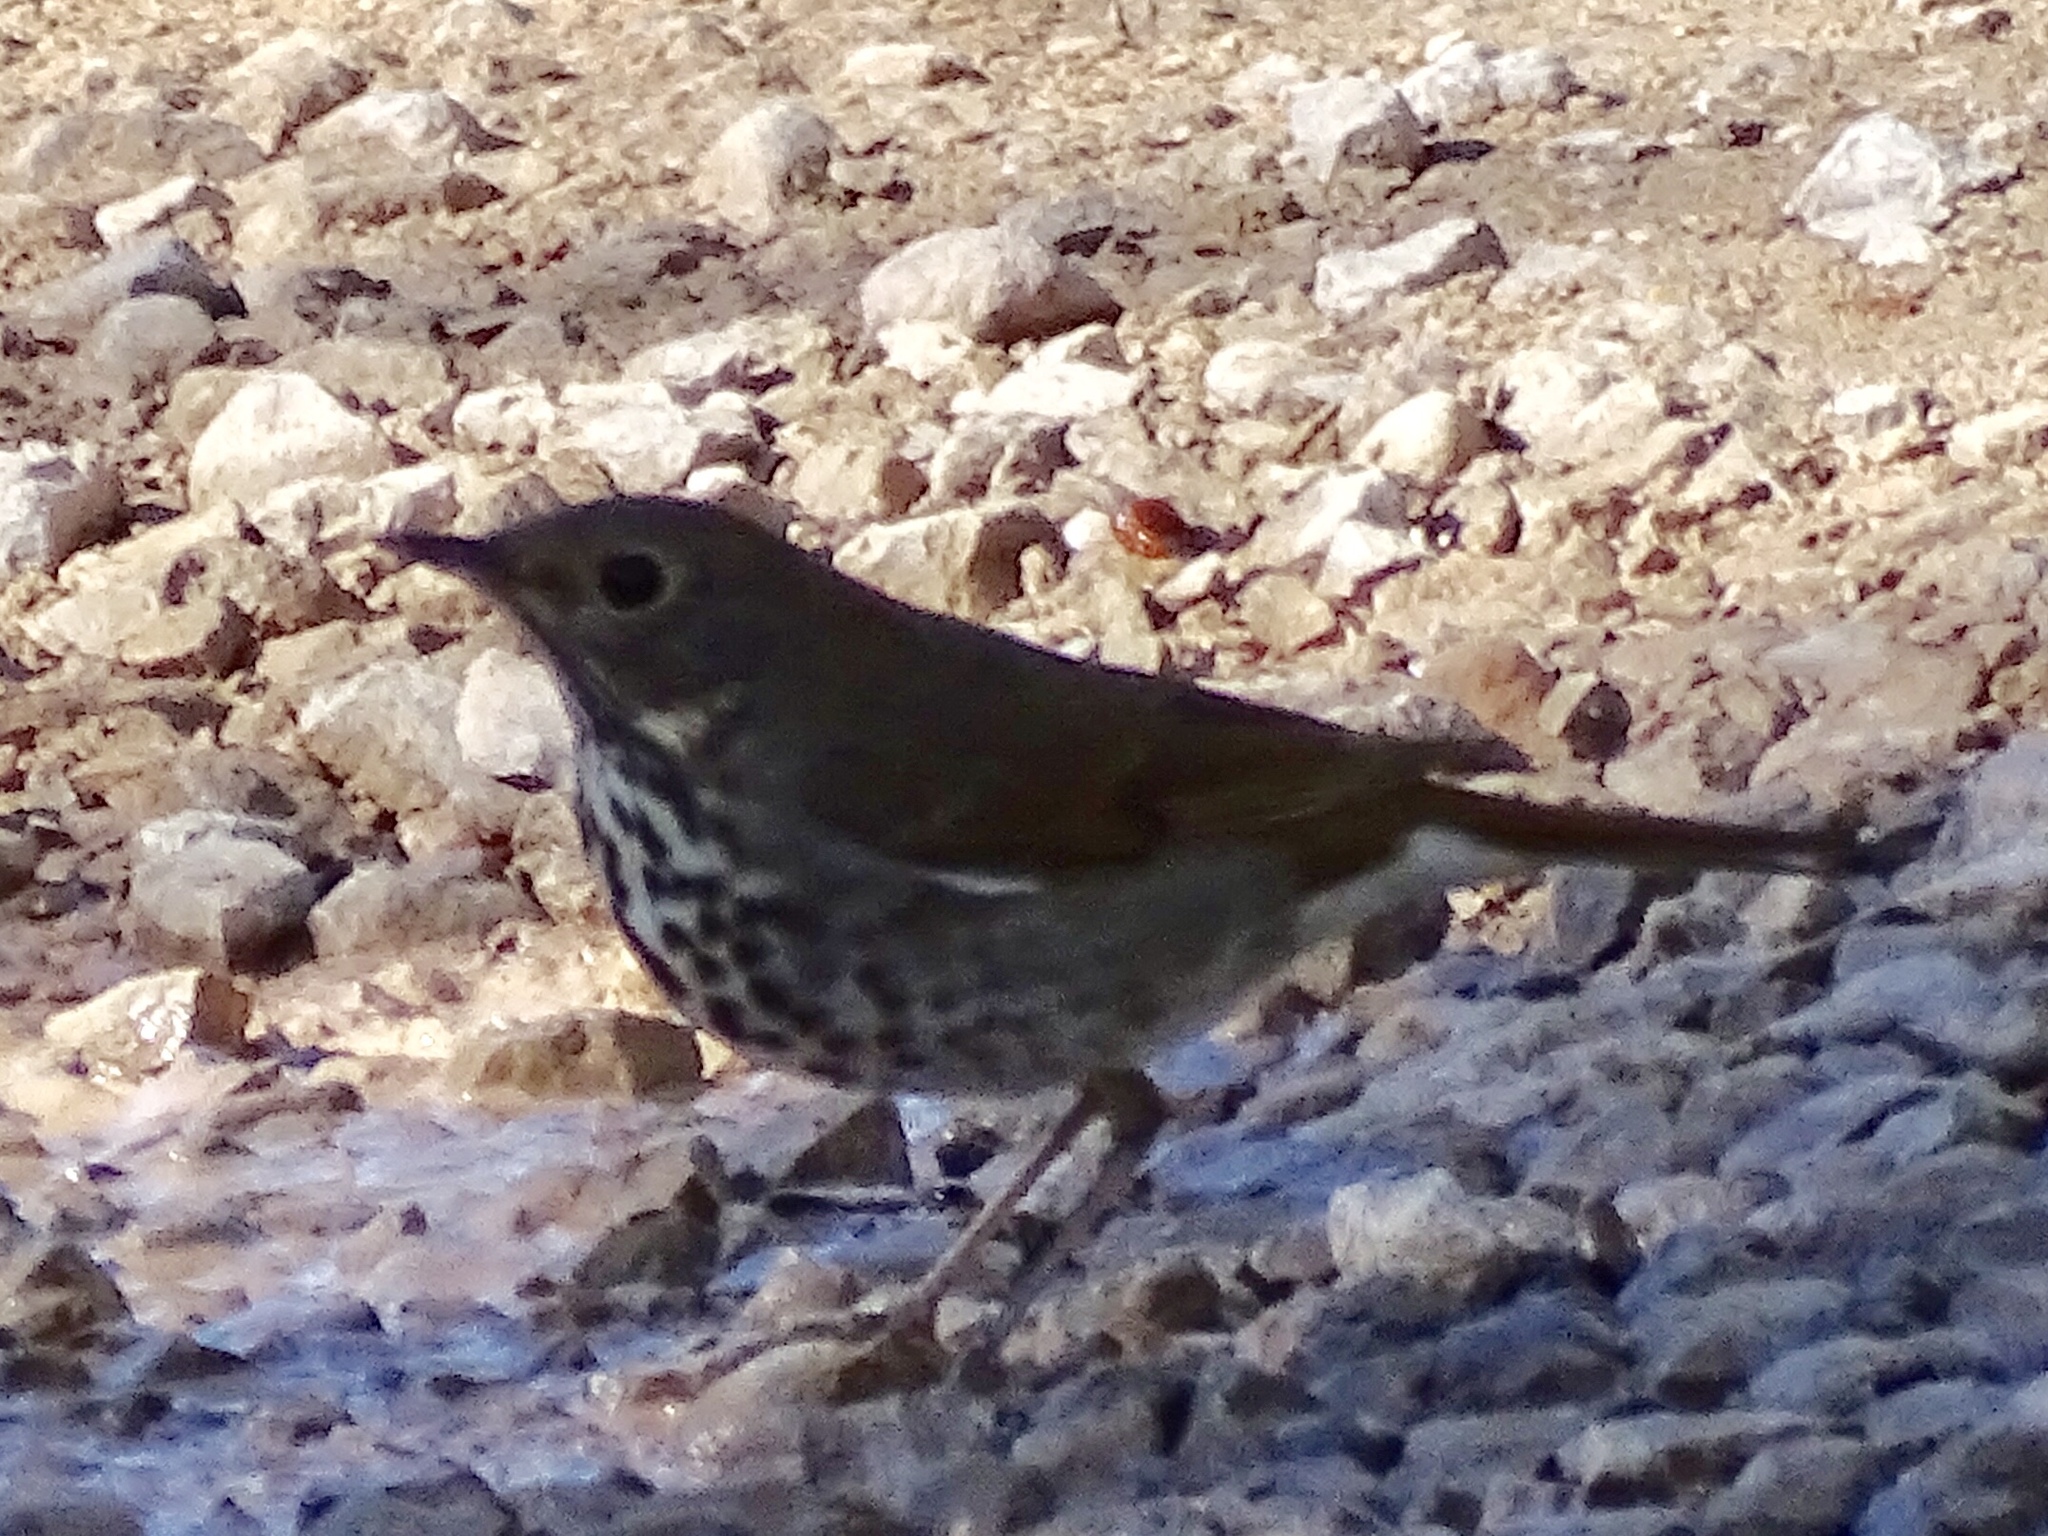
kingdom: Animalia
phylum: Chordata
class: Aves
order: Passeriformes
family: Turdidae
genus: Catharus
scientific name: Catharus guttatus
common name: Hermit thrush
